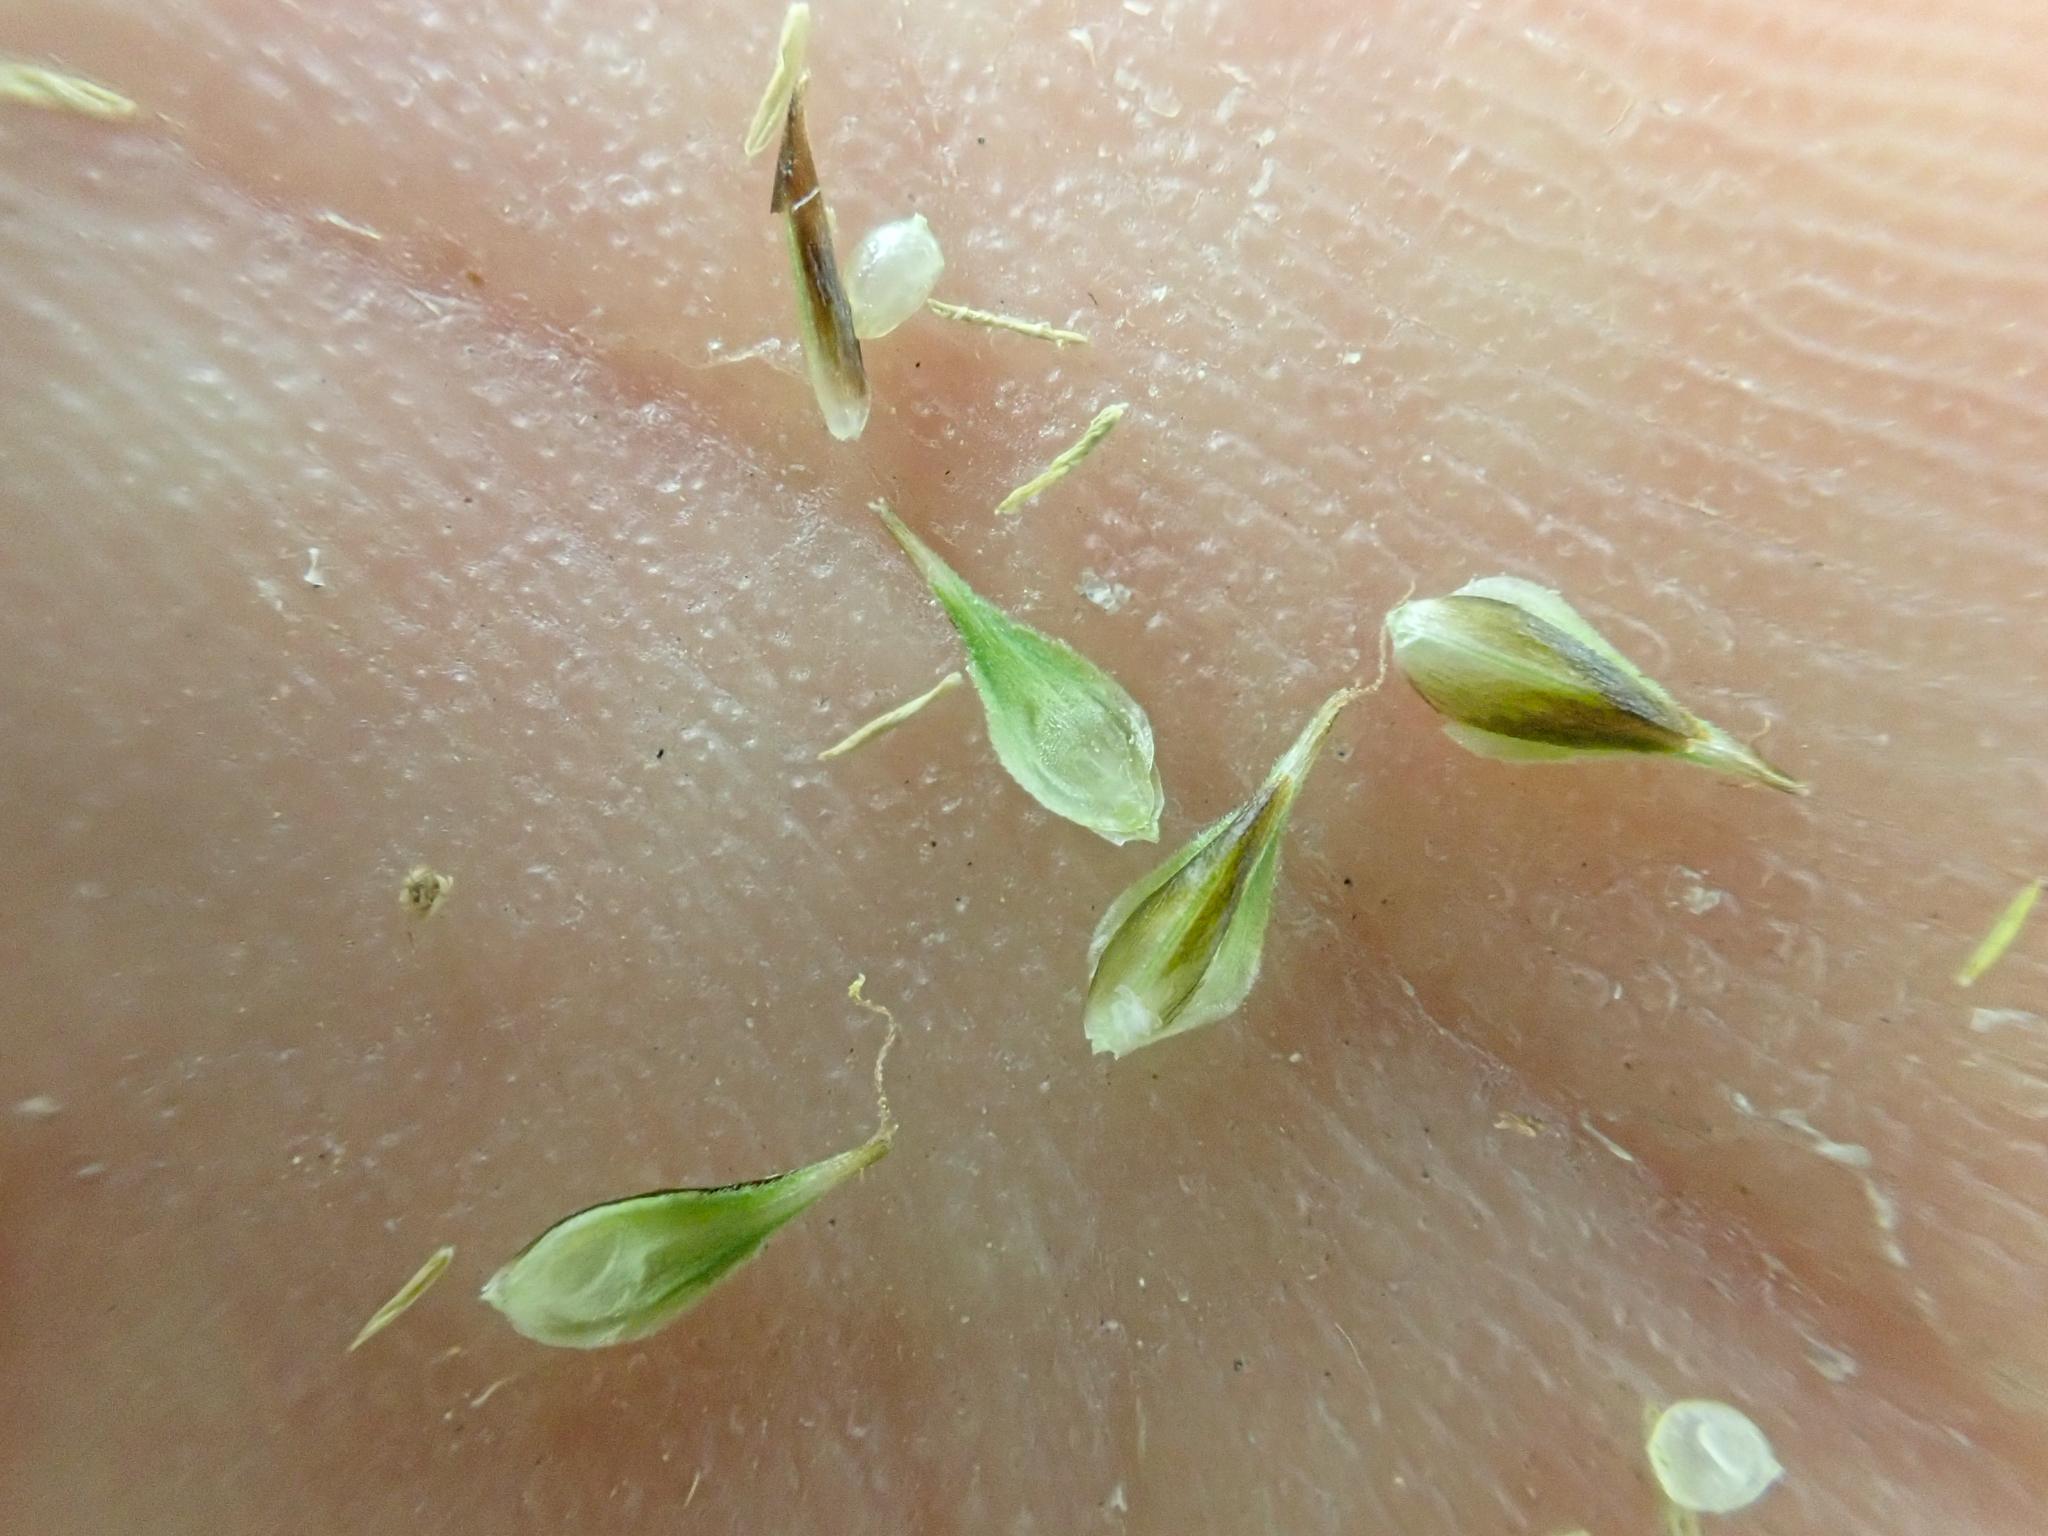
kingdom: Plantae
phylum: Tracheophyta
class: Liliopsida
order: Poales
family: Cyperaceae
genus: Carex
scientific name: Carex athrostachya
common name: Slenderbeak sedge
